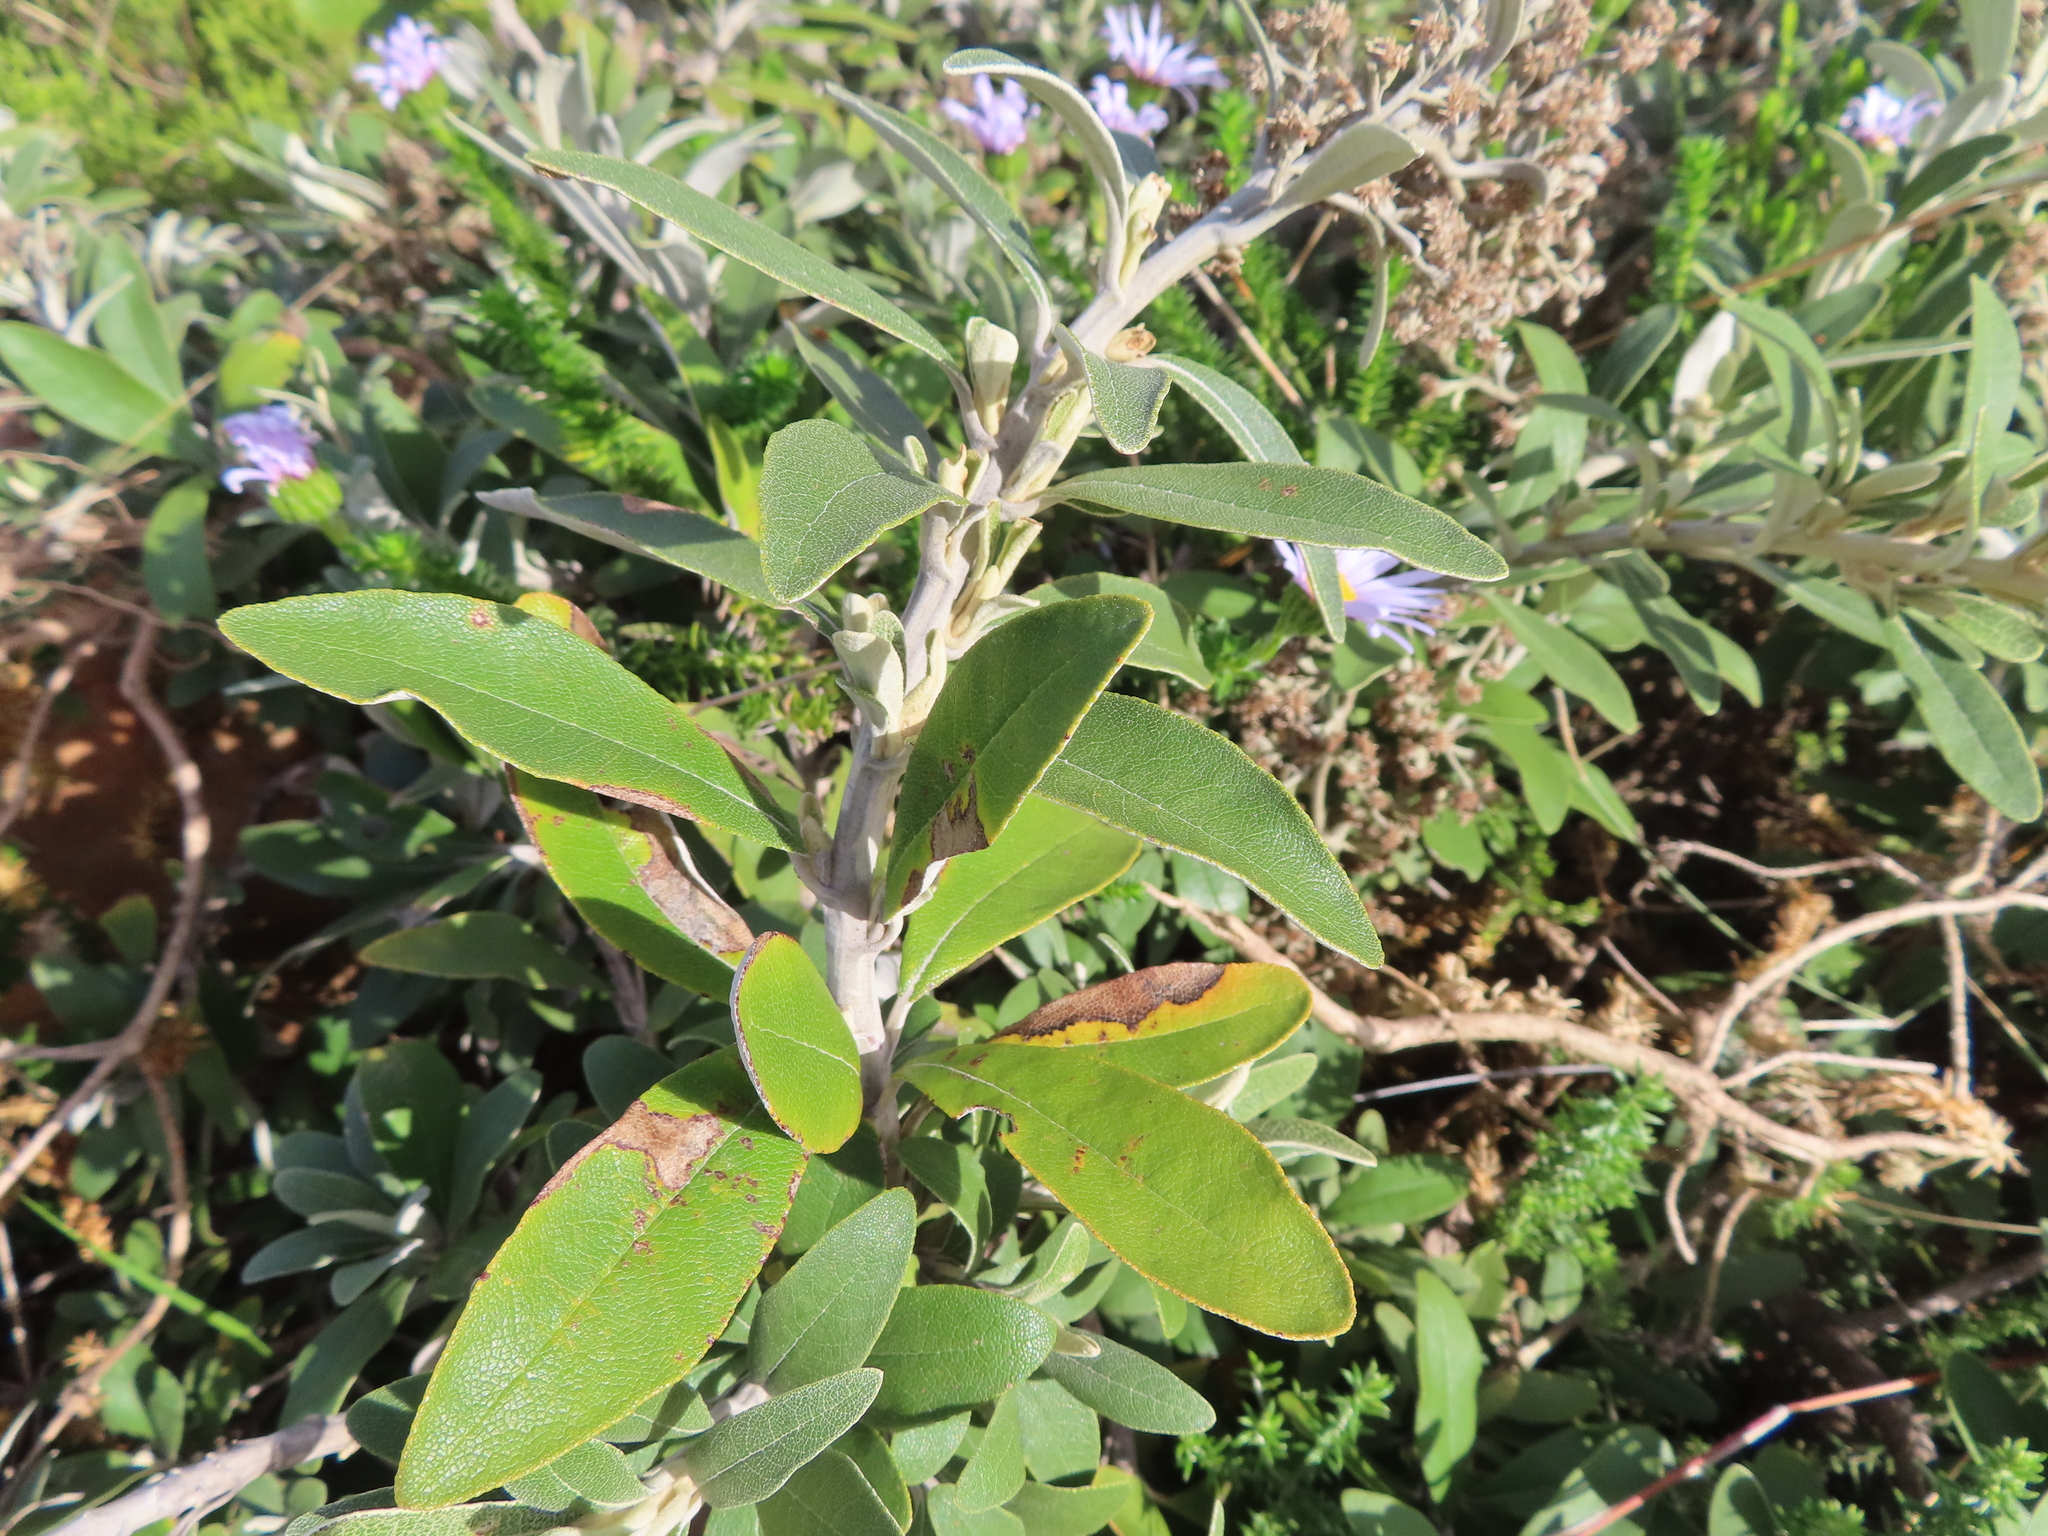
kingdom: Plantae
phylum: Tracheophyta
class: Magnoliopsida
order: Asterales
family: Asteraceae
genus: Tarchonanthus
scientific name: Tarchonanthus littoralis
